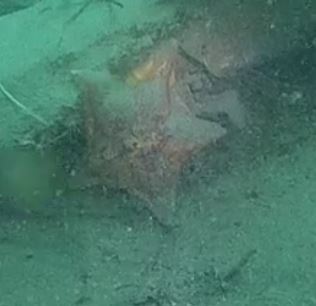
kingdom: Animalia
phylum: Echinodermata
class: Asteroidea
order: Valvatida
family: Asterinidae
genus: Patiria
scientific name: Patiria miniata
